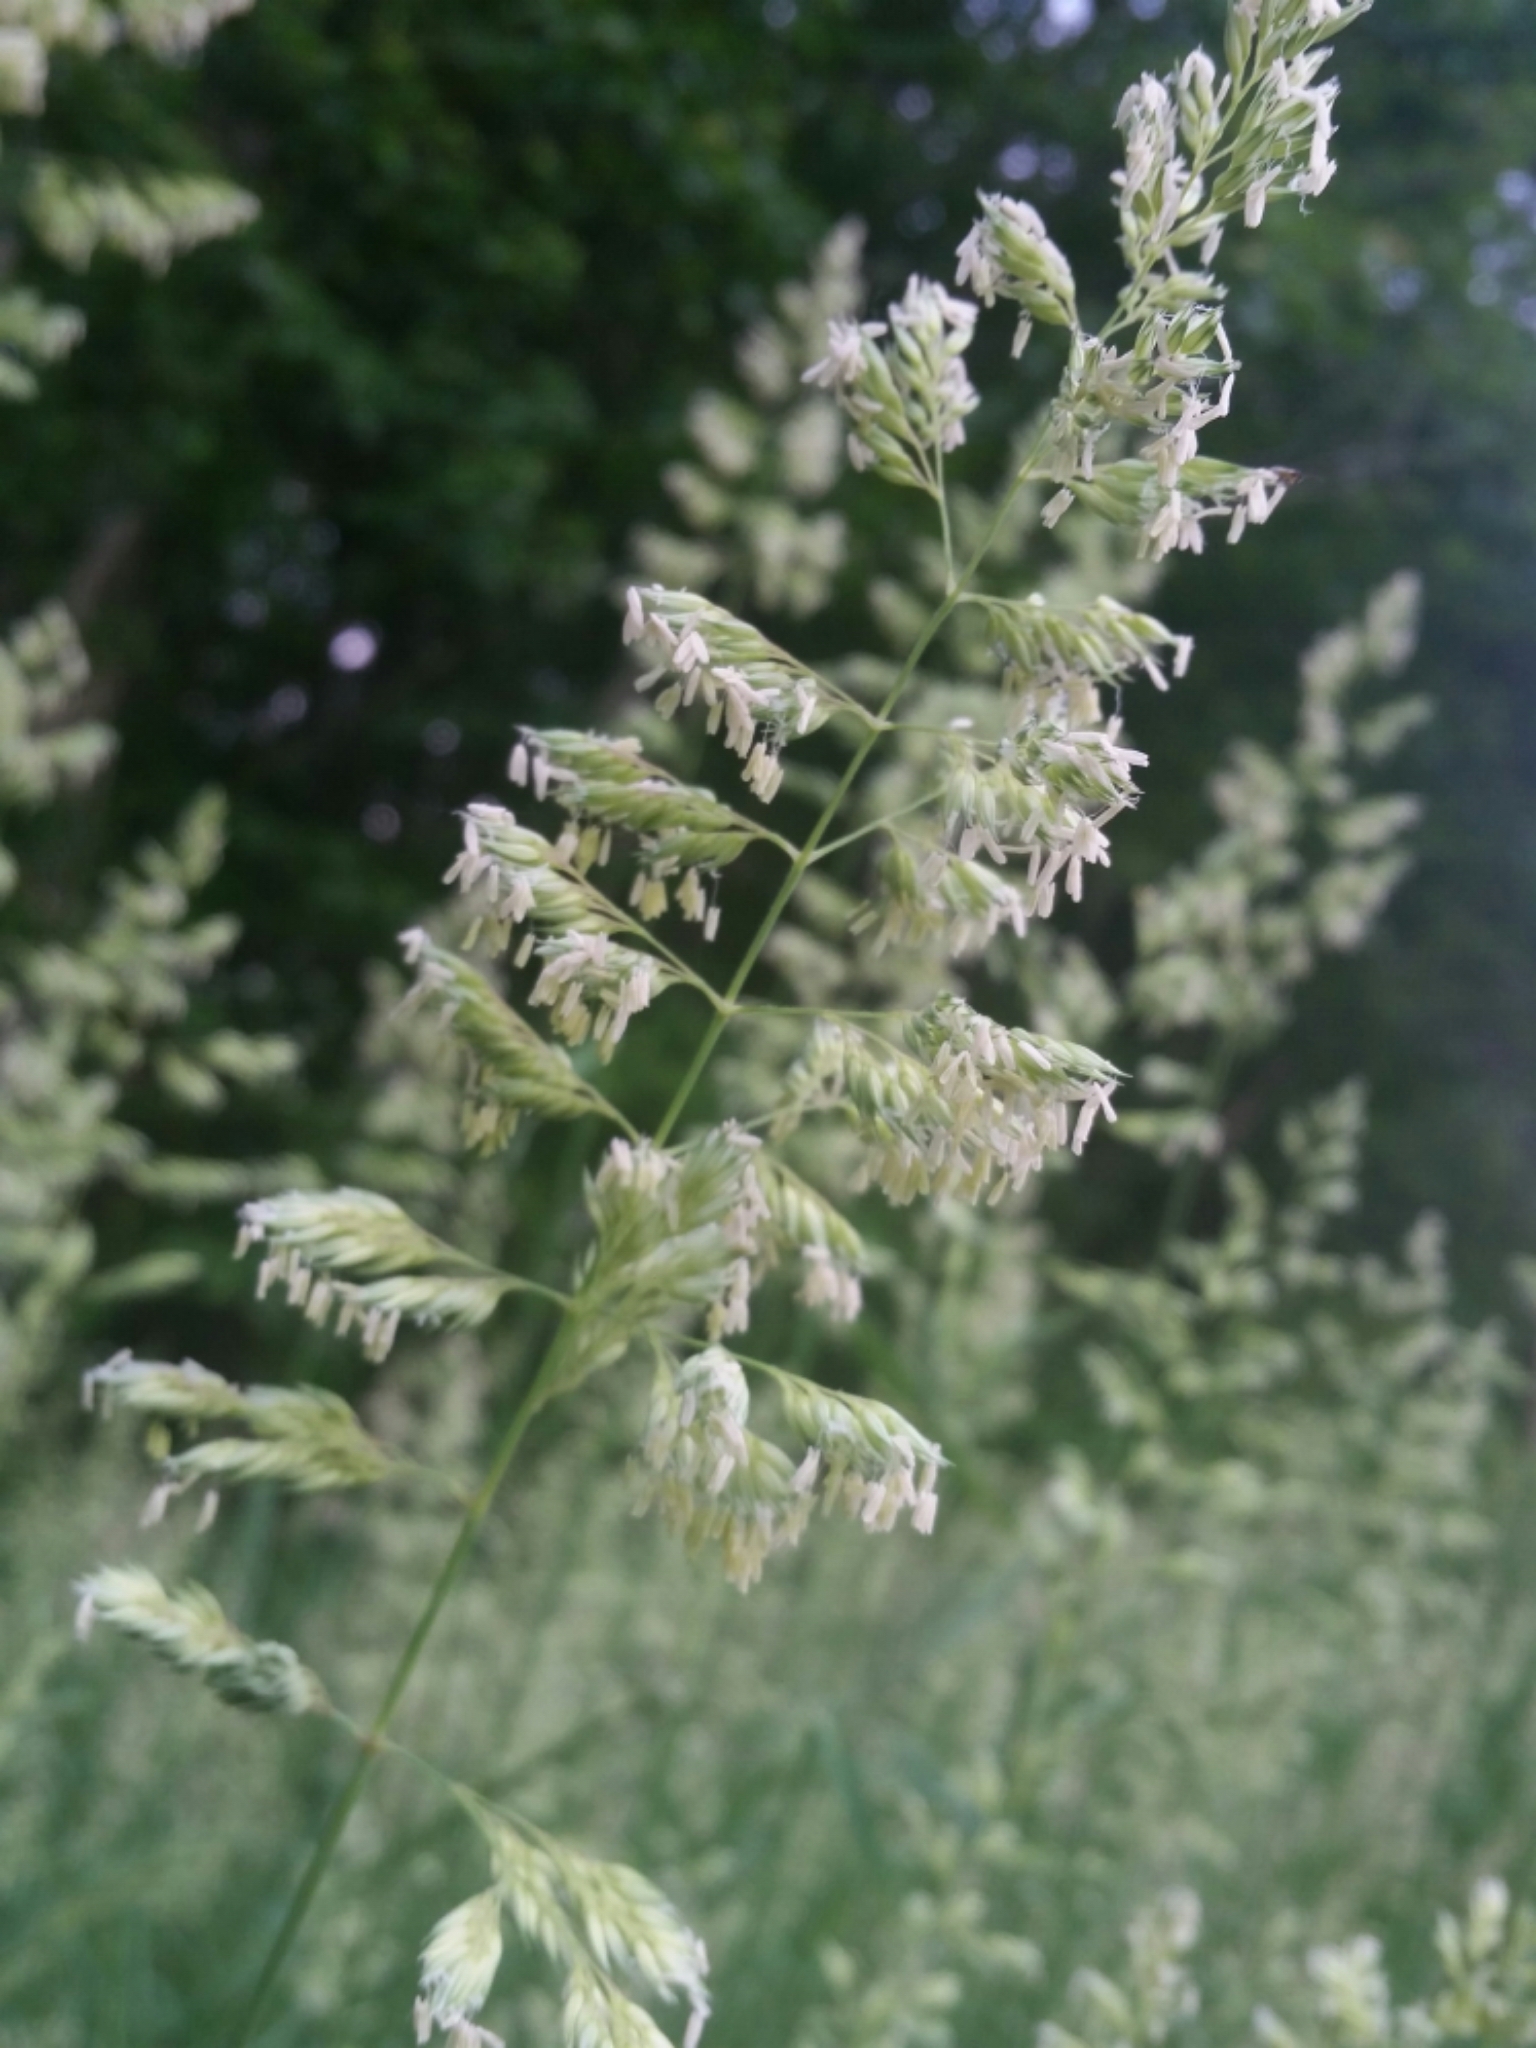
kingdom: Plantae
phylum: Tracheophyta
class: Liliopsida
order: Poales
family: Poaceae
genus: Phalaris
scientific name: Phalaris arundinacea
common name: Reed canary-grass
